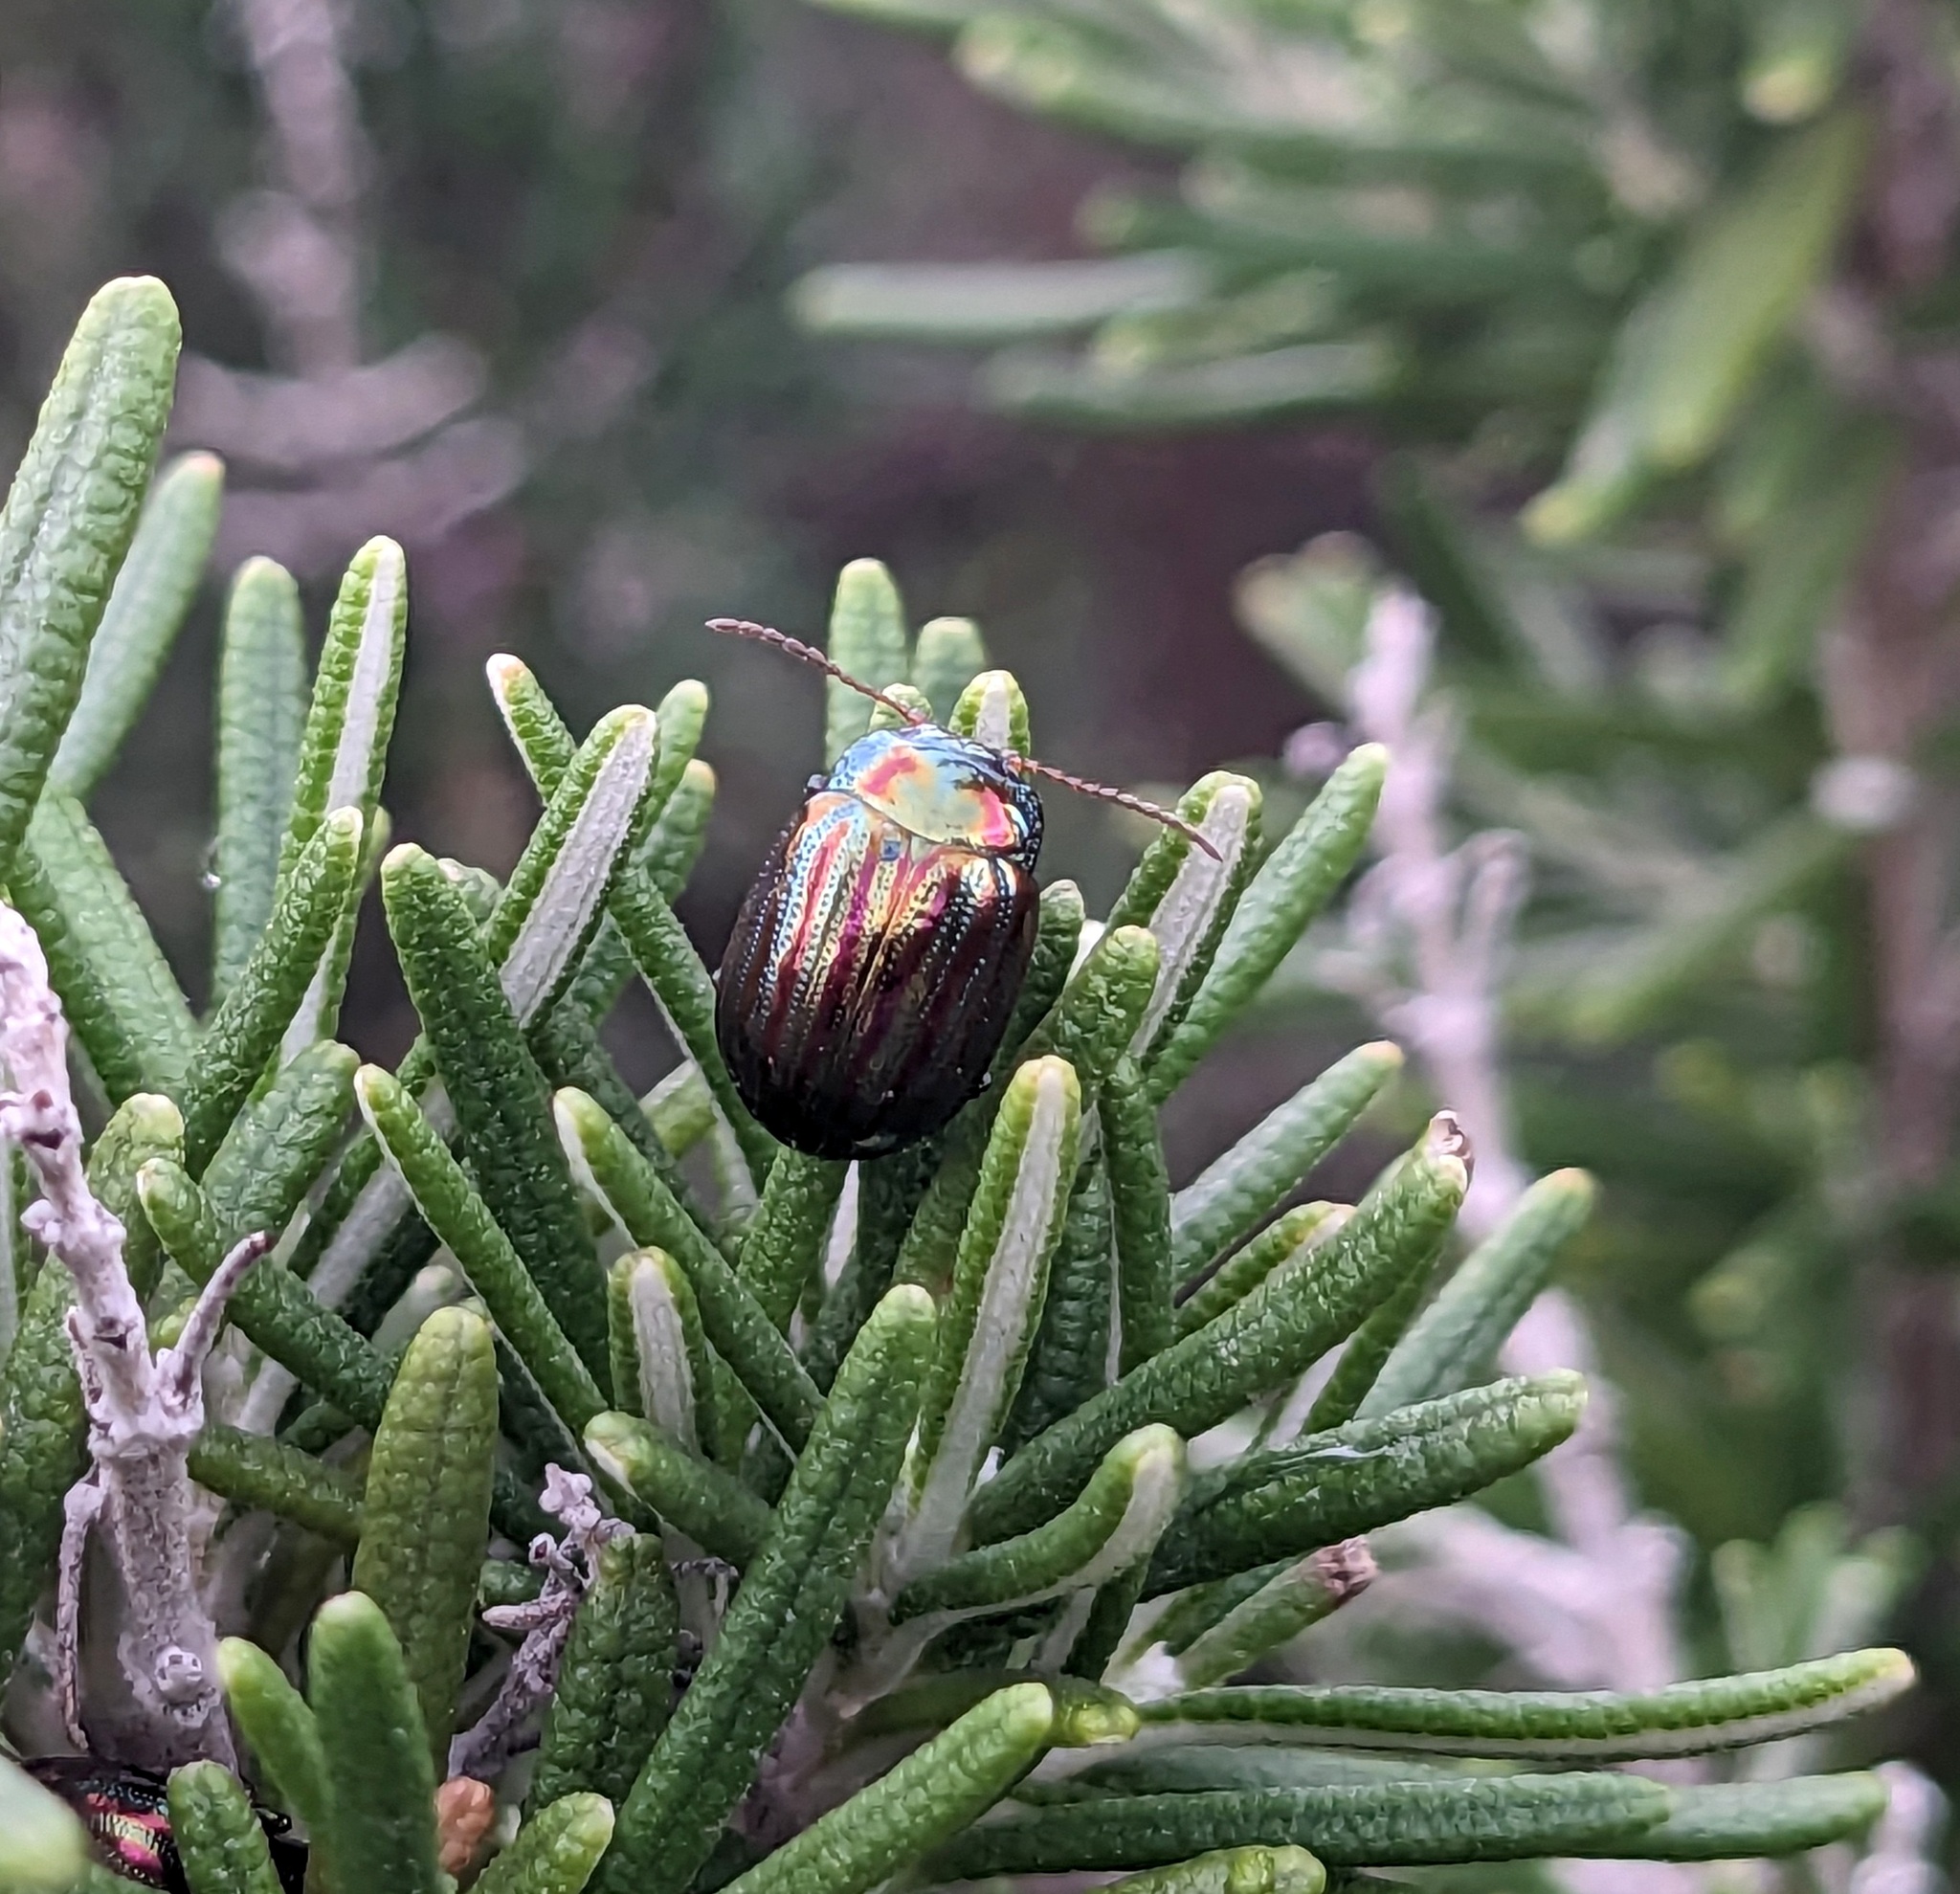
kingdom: Animalia
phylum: Arthropoda
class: Insecta
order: Coleoptera
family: Chrysomelidae
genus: Chrysolina
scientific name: Chrysolina americana
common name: Rosemary beetle
